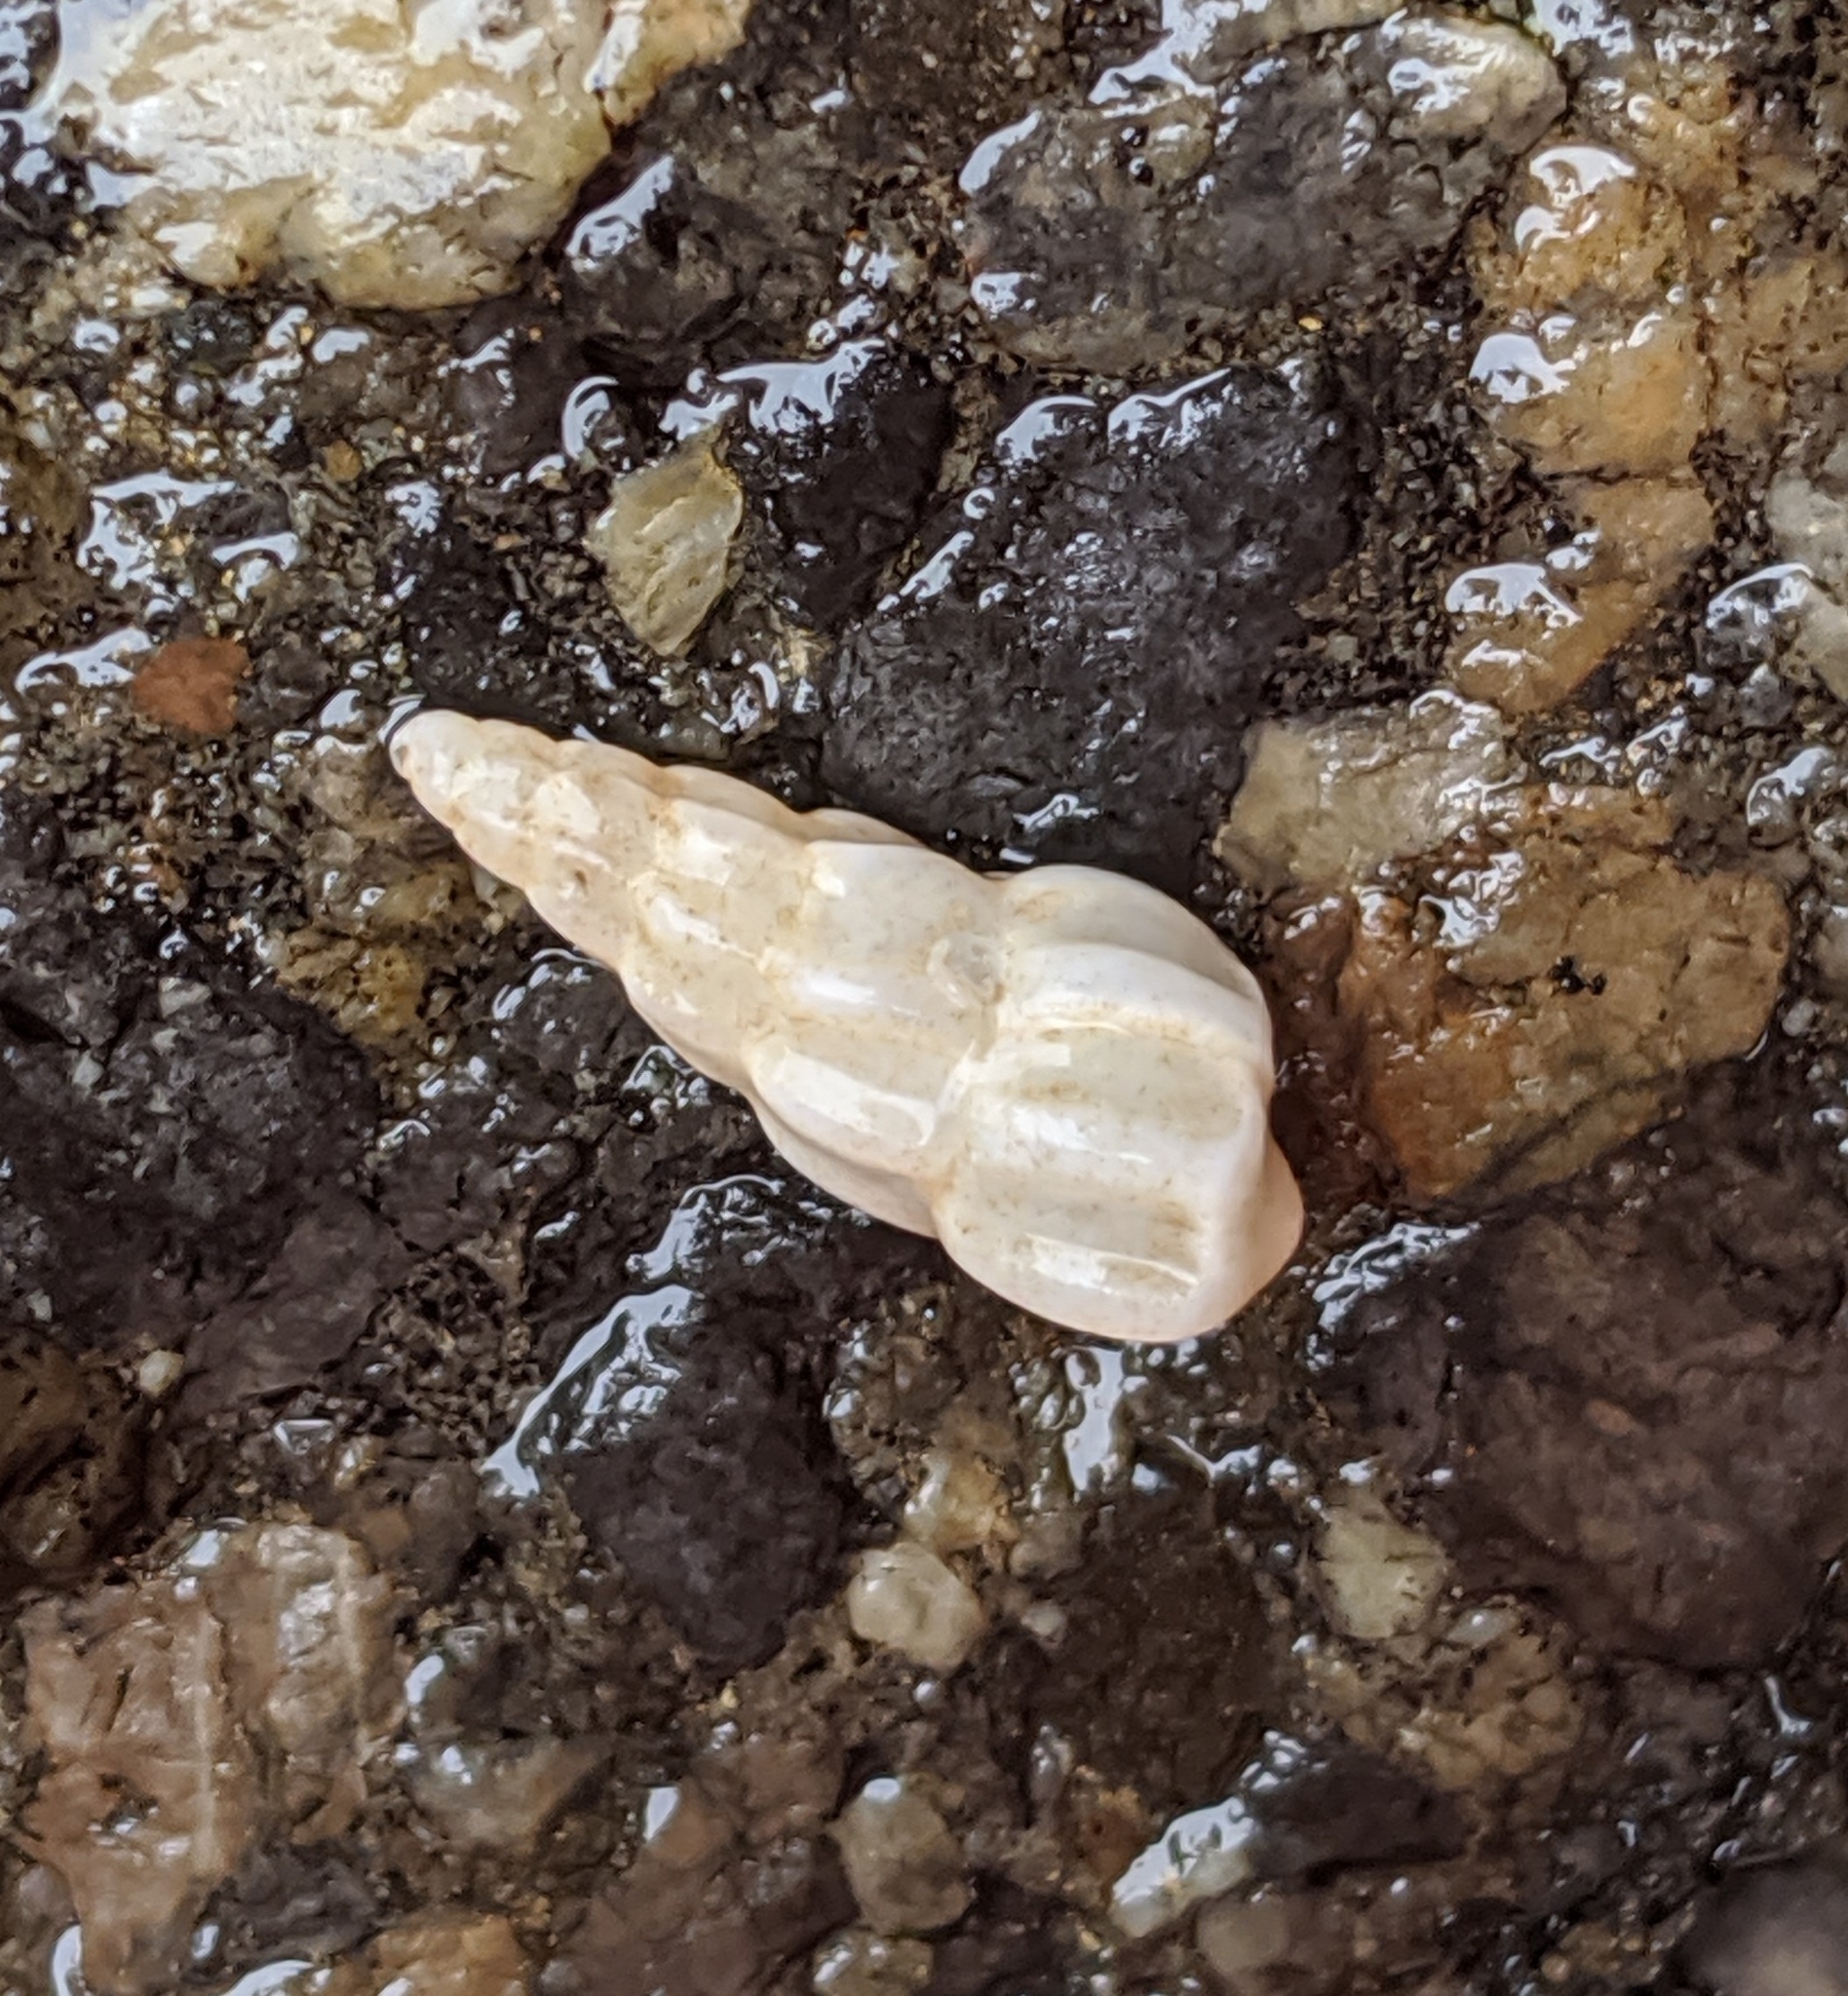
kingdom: Animalia
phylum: Mollusca
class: Gastropoda
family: Epitoniidae
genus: Opalia
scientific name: Opalia wroblewskyi
